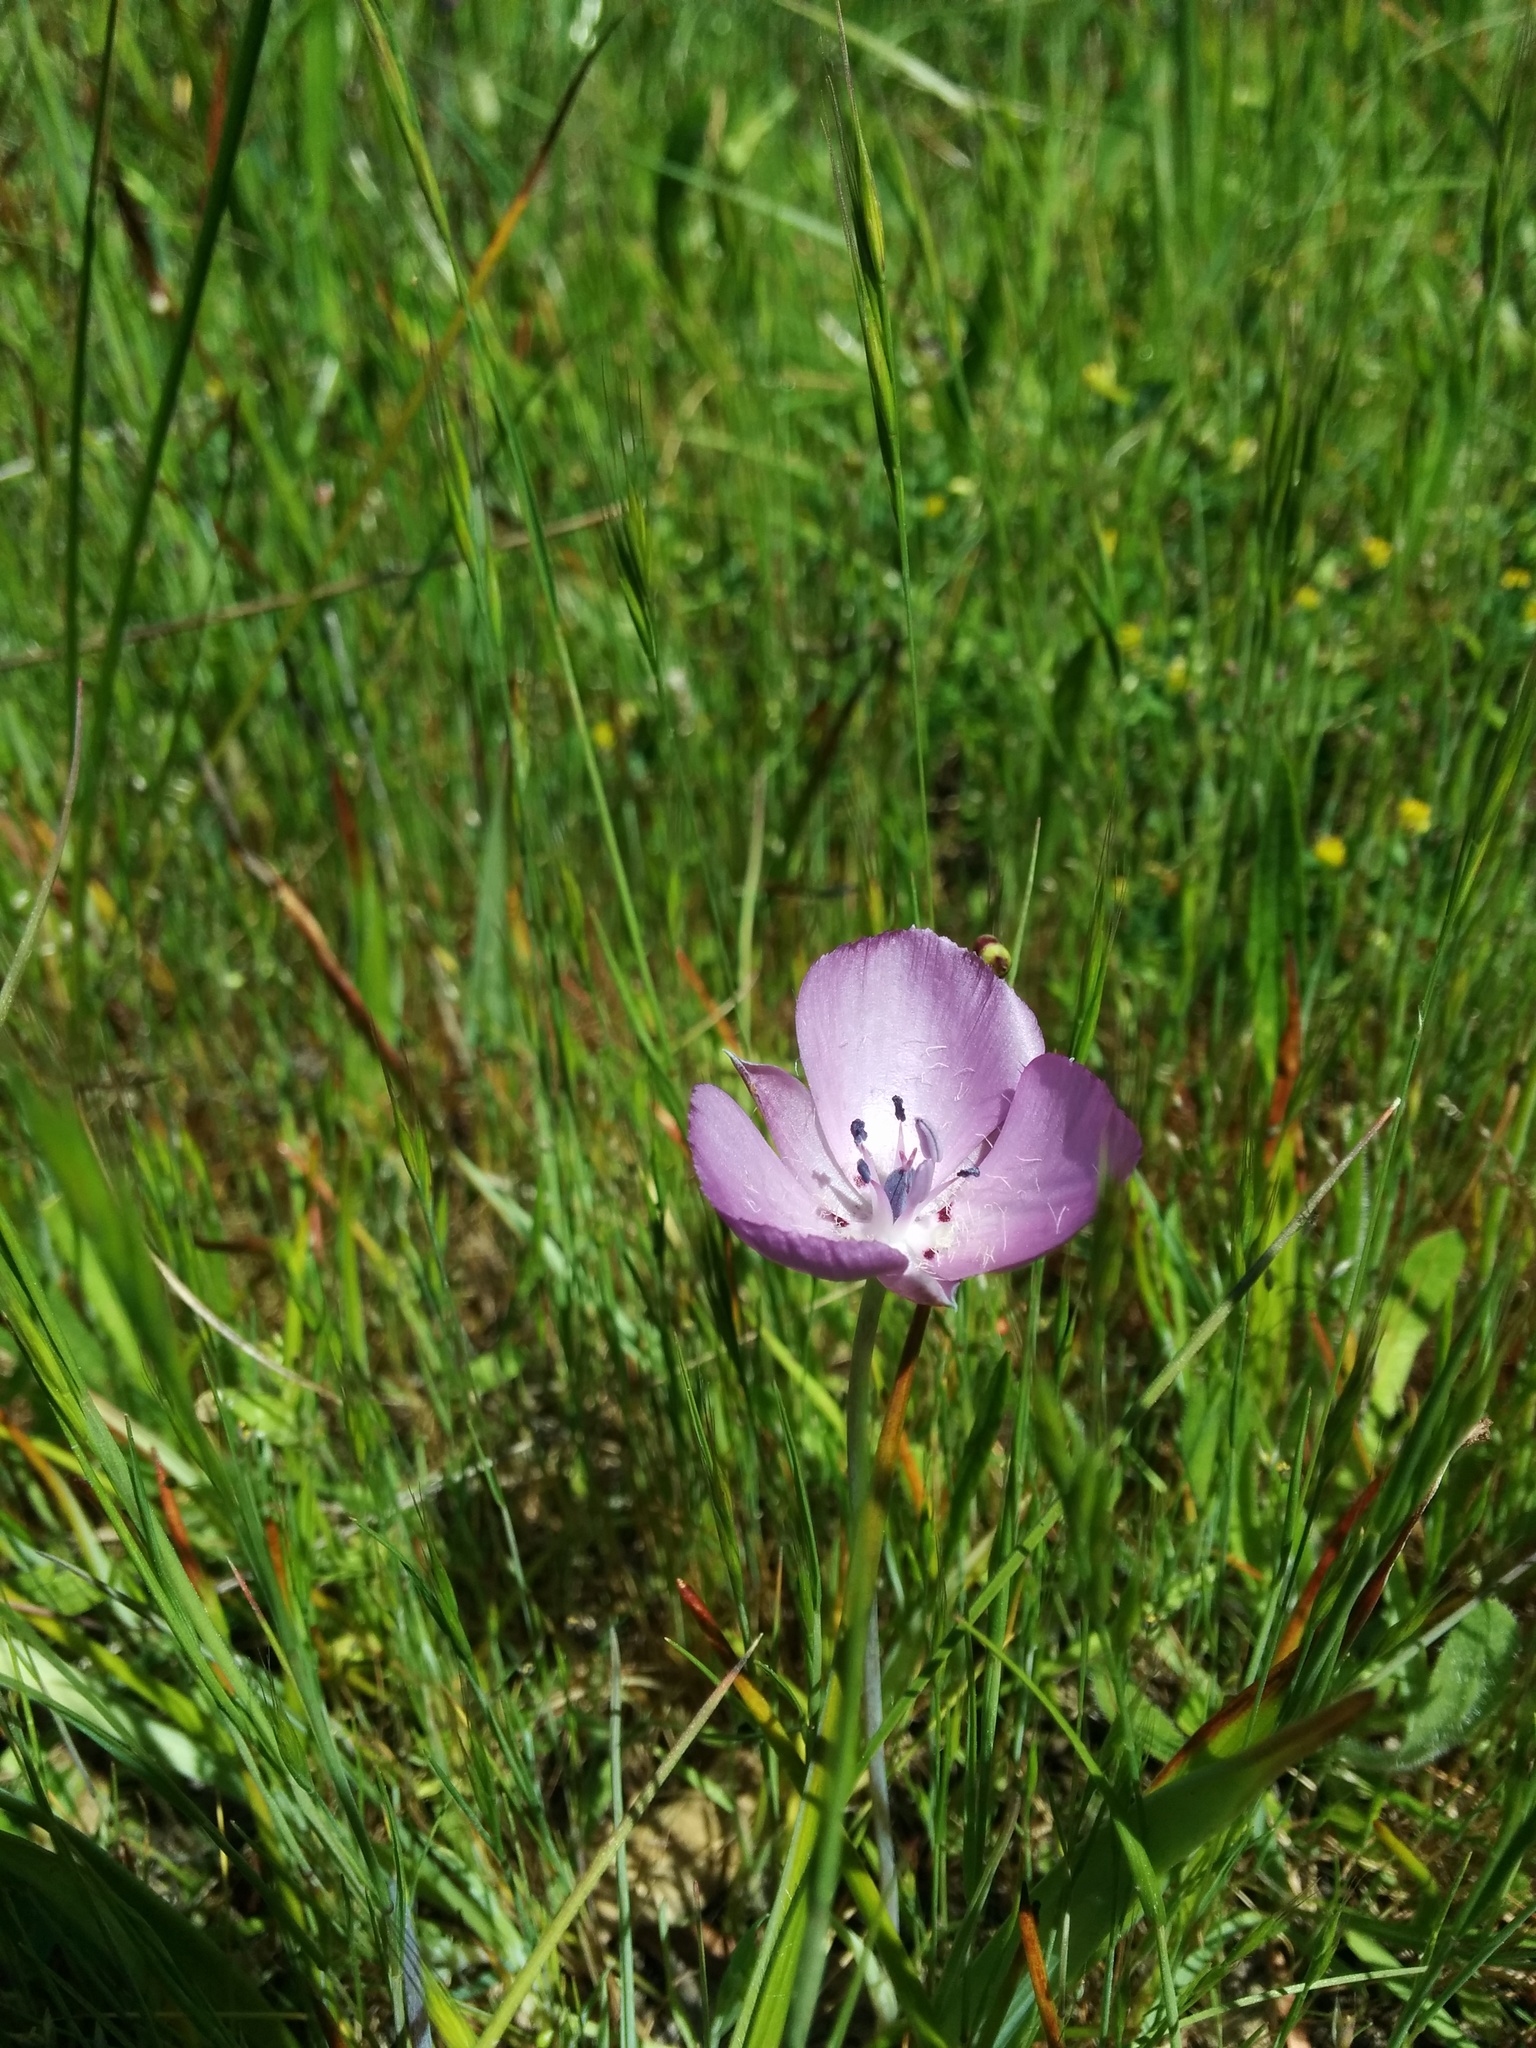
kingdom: Plantae
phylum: Tracheophyta
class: Liliopsida
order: Liliales
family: Liliaceae
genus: Calochortus
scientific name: Calochortus uniflorus
